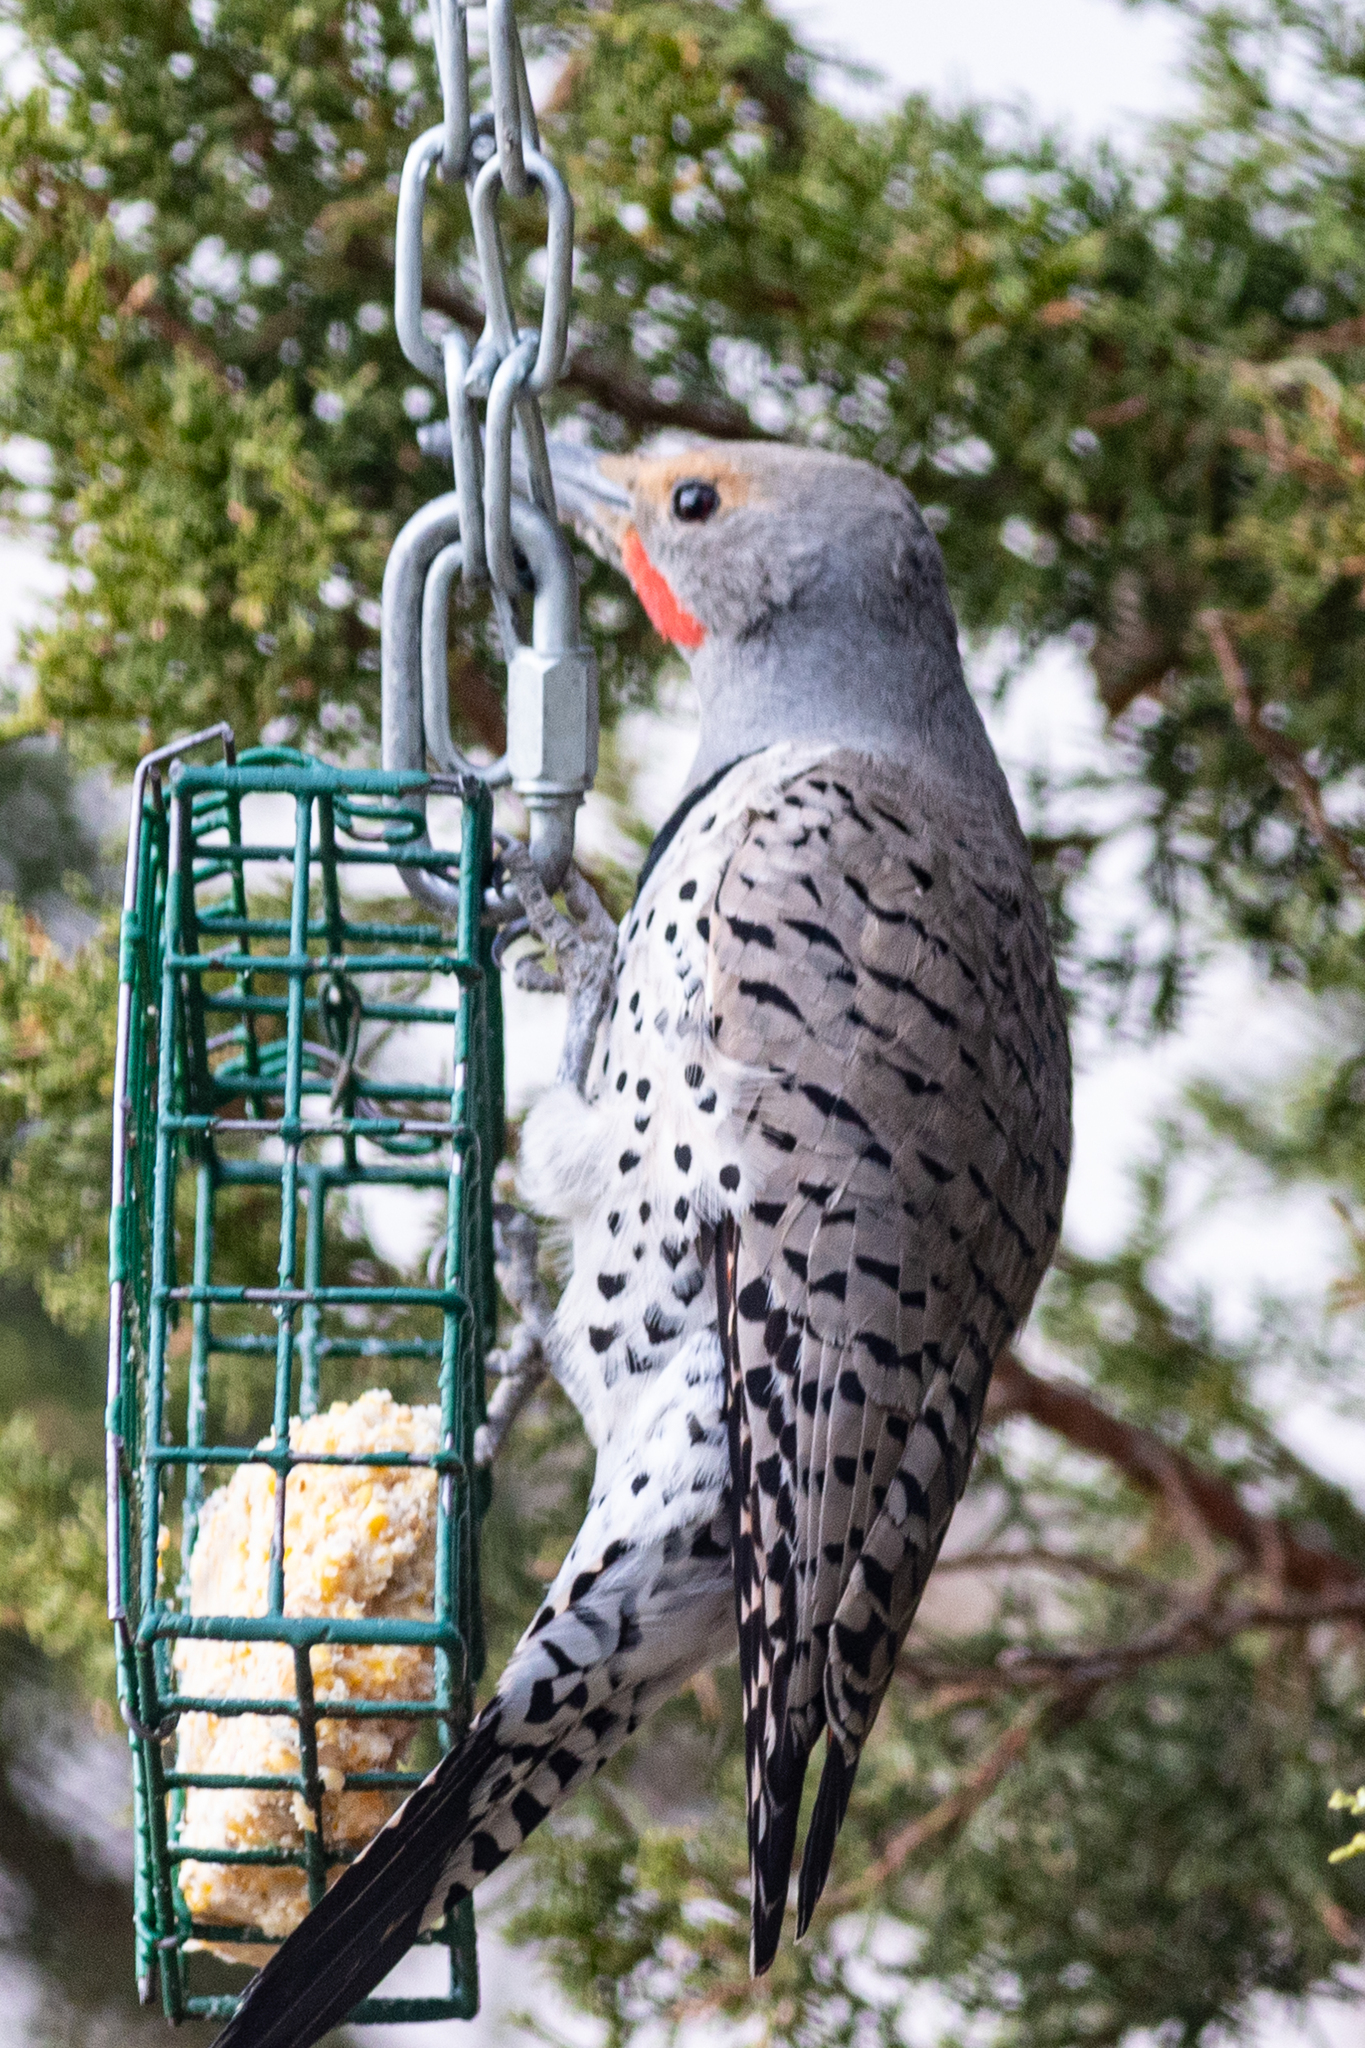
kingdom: Animalia
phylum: Chordata
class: Aves
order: Piciformes
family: Picidae
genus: Colaptes
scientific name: Colaptes auratus
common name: Northern flicker
